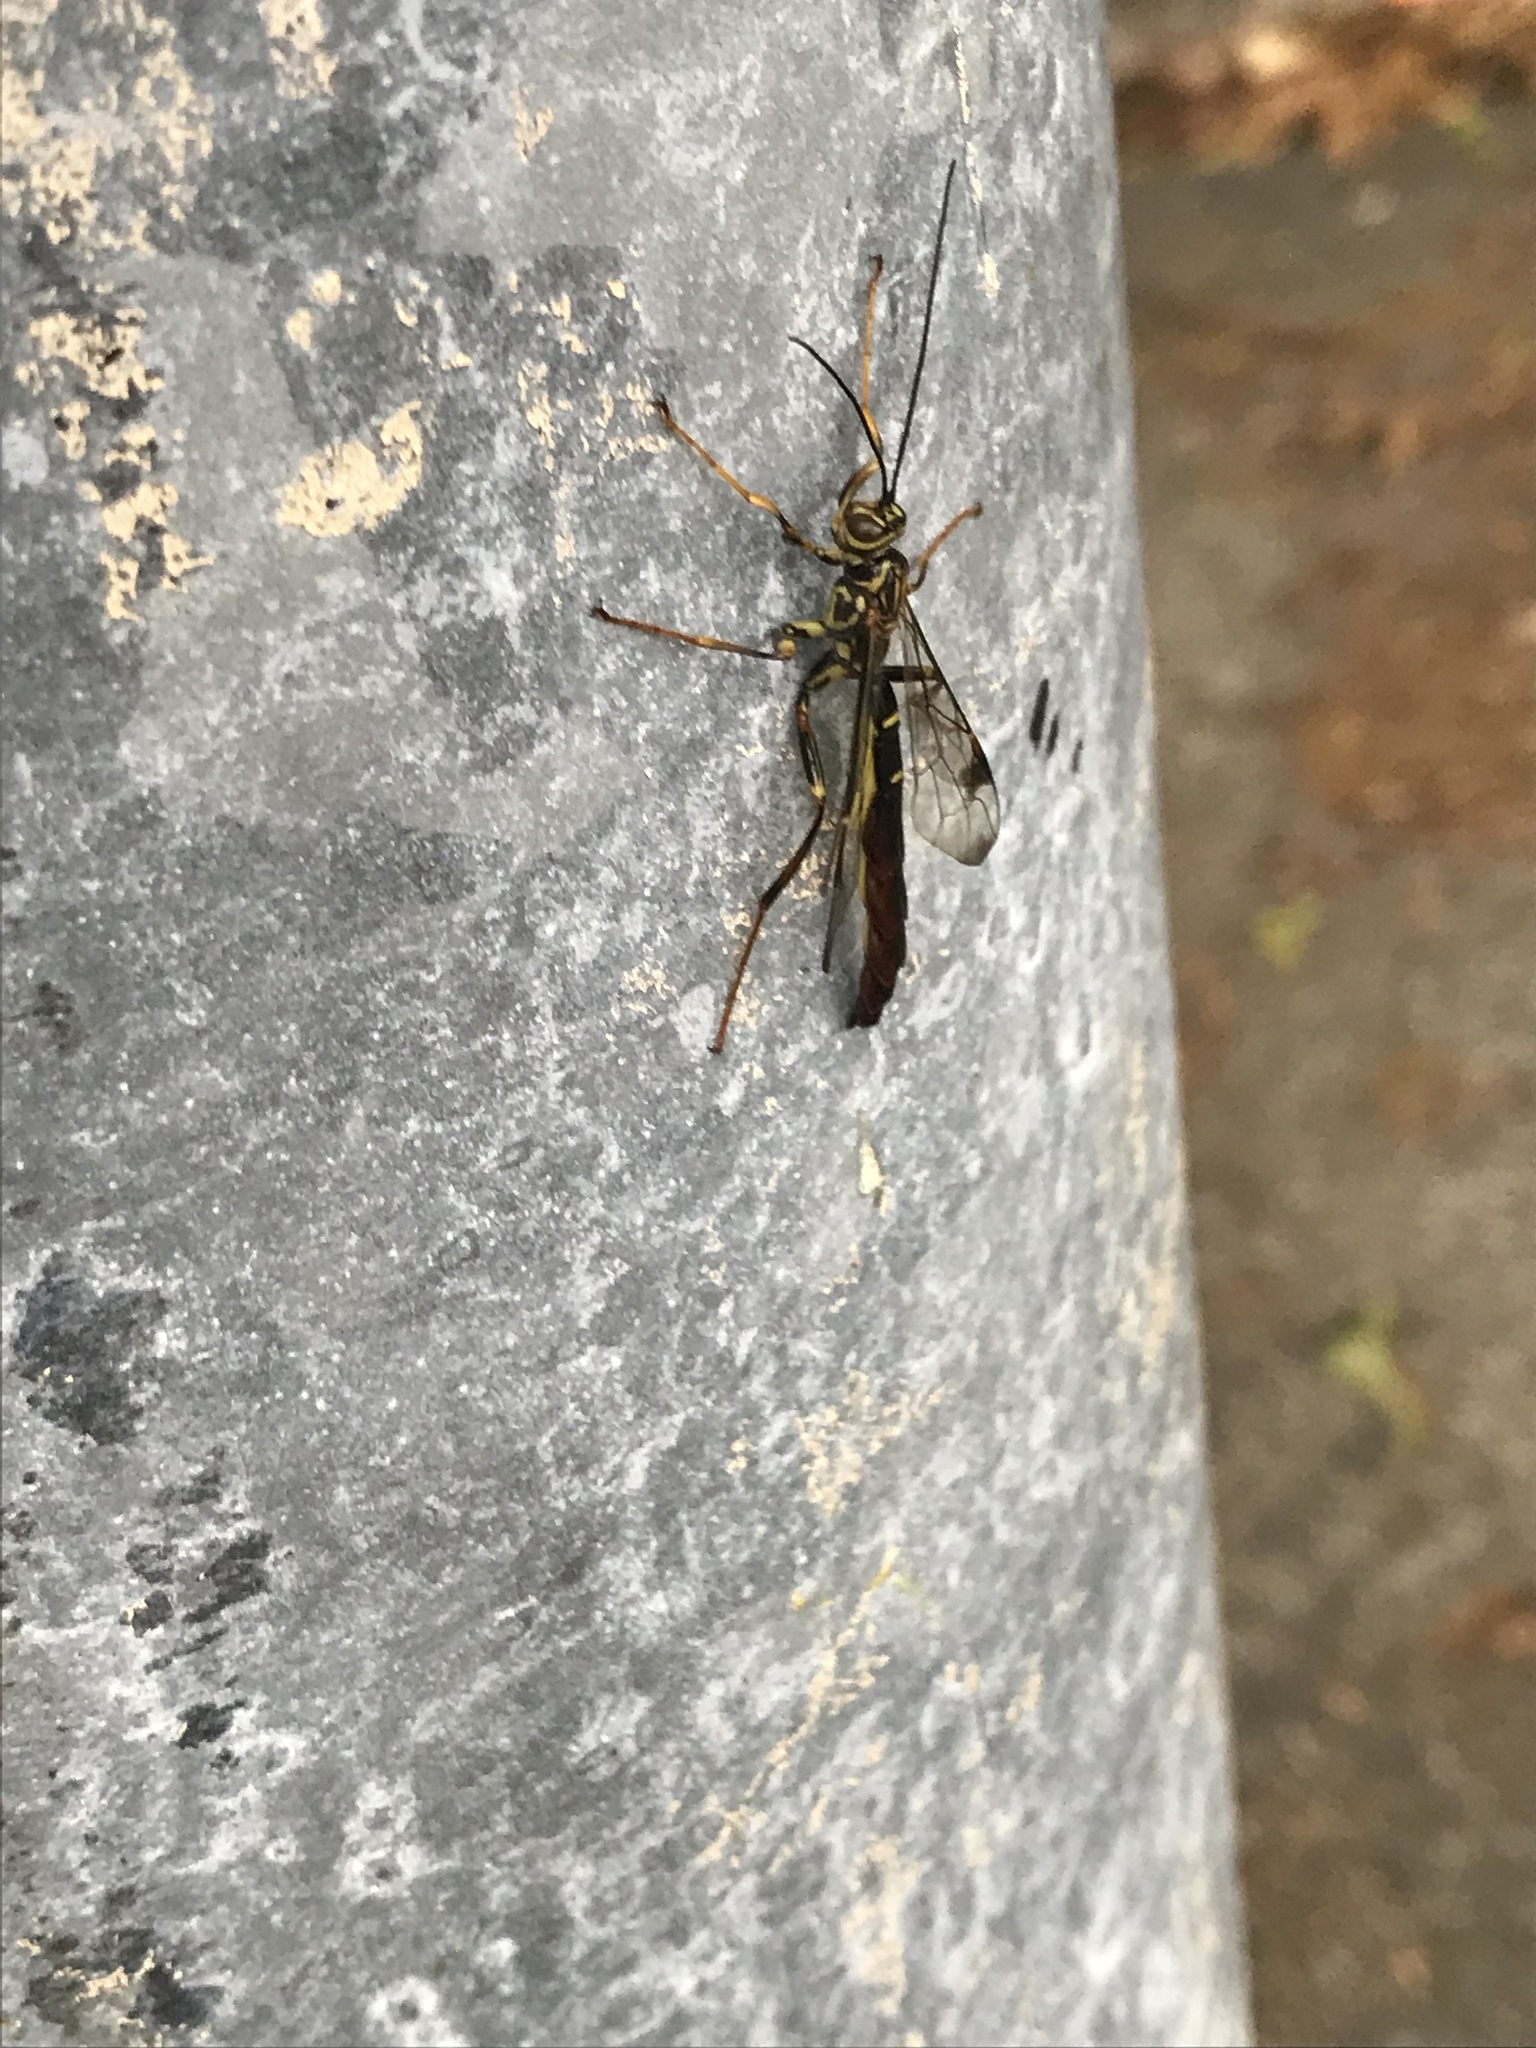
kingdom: Animalia
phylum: Arthropoda
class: Insecta
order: Hymenoptera
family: Ichneumonidae
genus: Megarhyssa
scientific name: Megarhyssa macrura
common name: Long-tailed giant ichneumonid wasp
